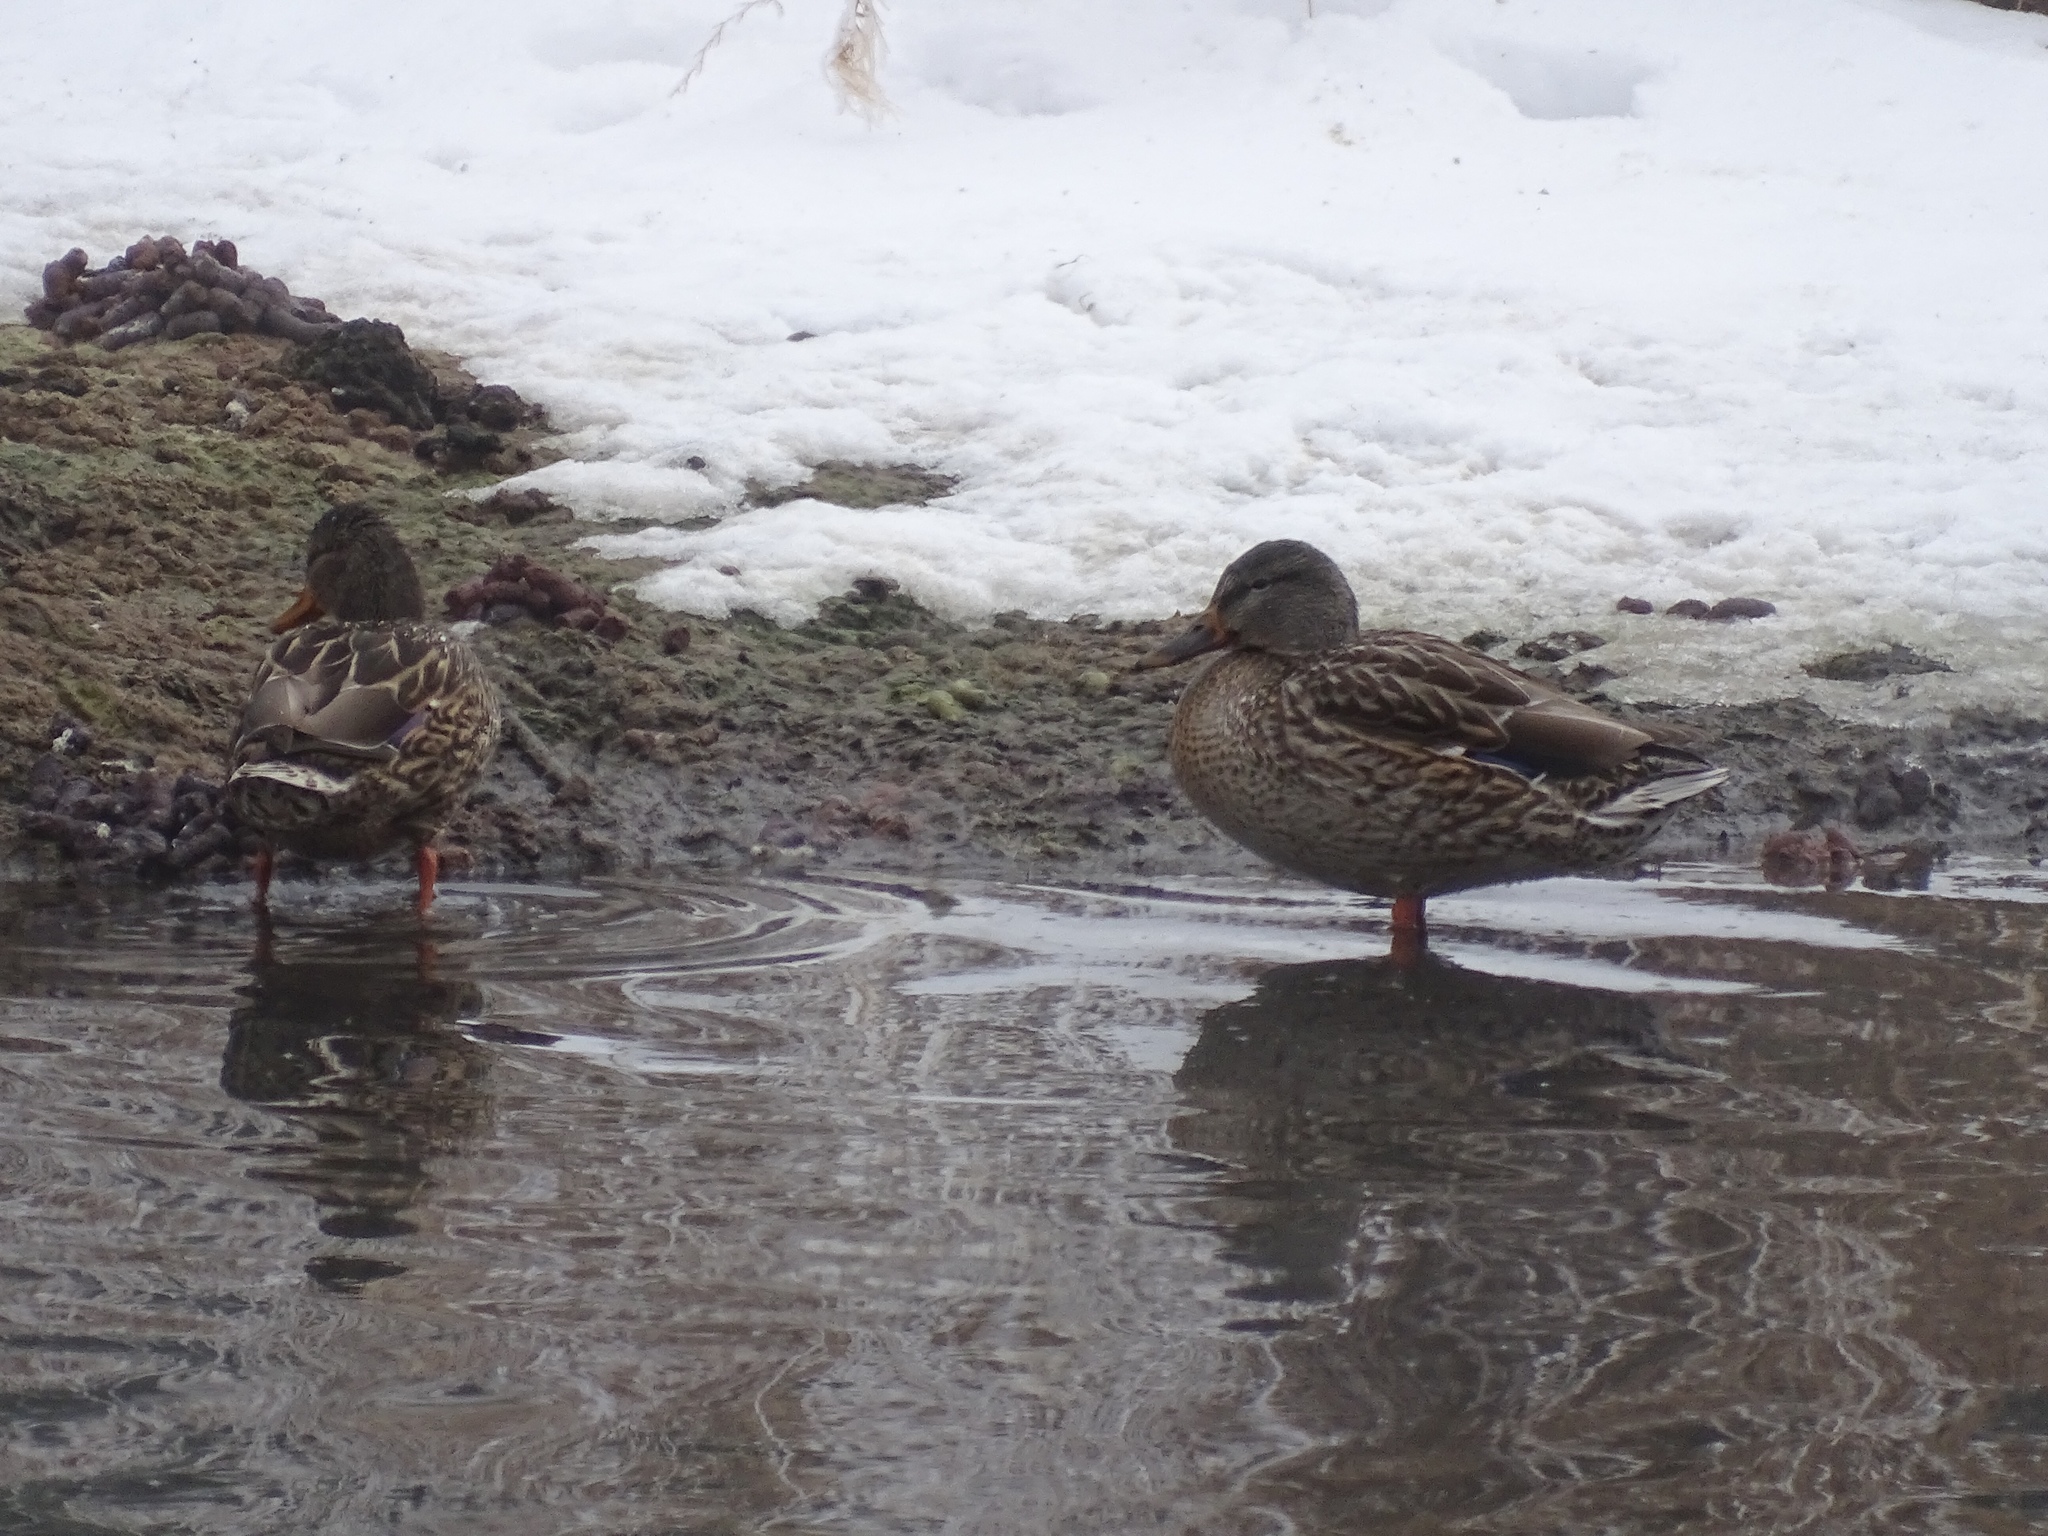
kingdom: Animalia
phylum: Chordata
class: Aves
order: Anseriformes
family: Anatidae
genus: Anas
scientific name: Anas platyrhynchos
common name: Mallard
